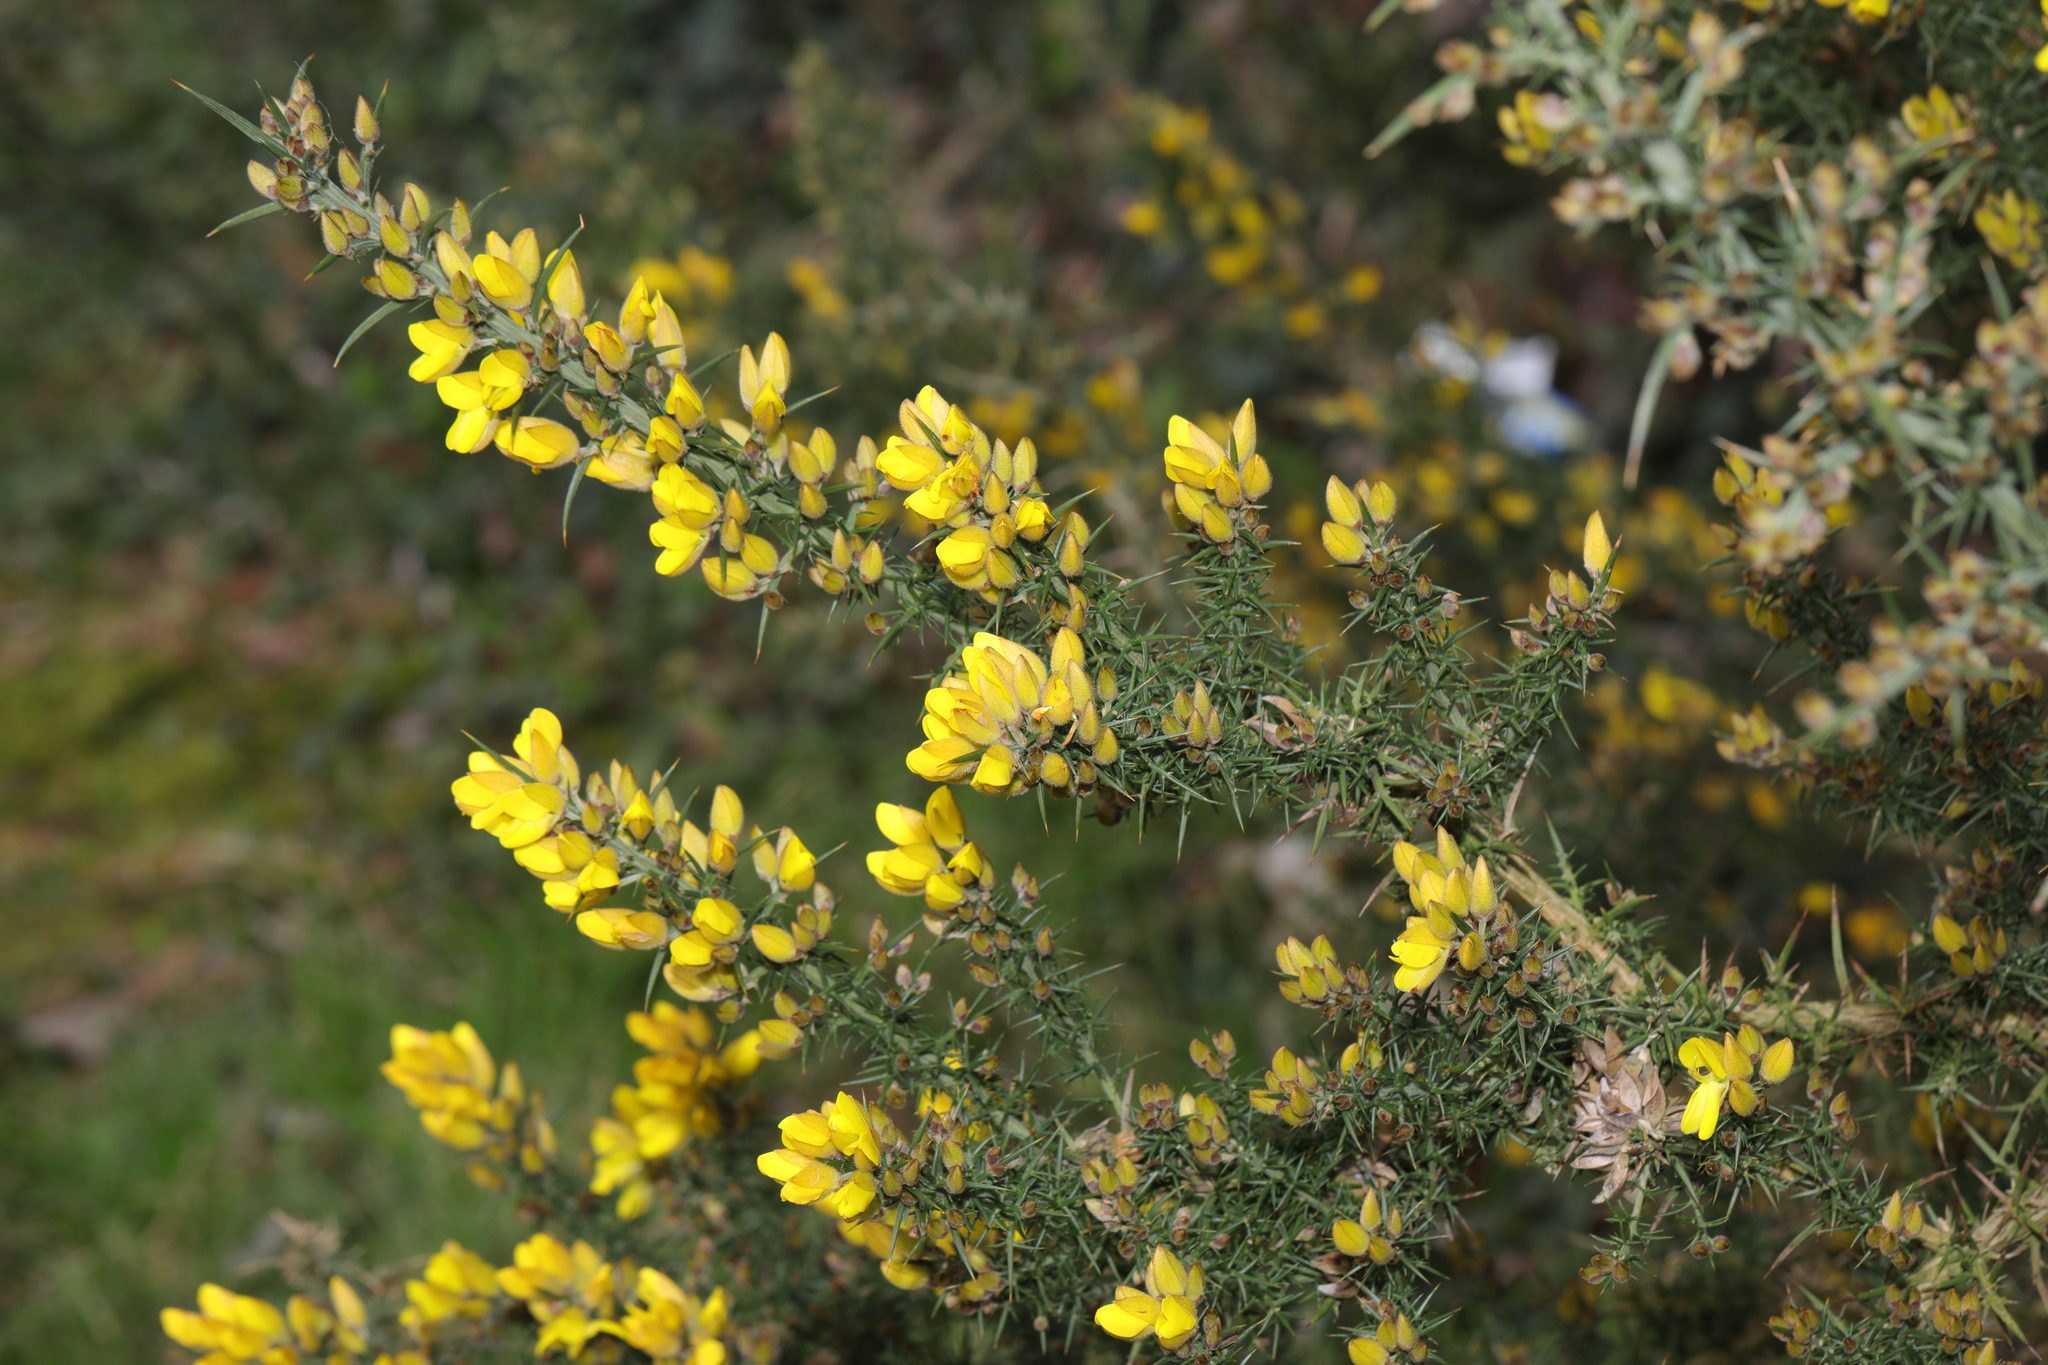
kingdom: Plantae
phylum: Tracheophyta
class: Magnoliopsida
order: Fabales
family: Fabaceae
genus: Ulex
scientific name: Ulex europaeus
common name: Common gorse
